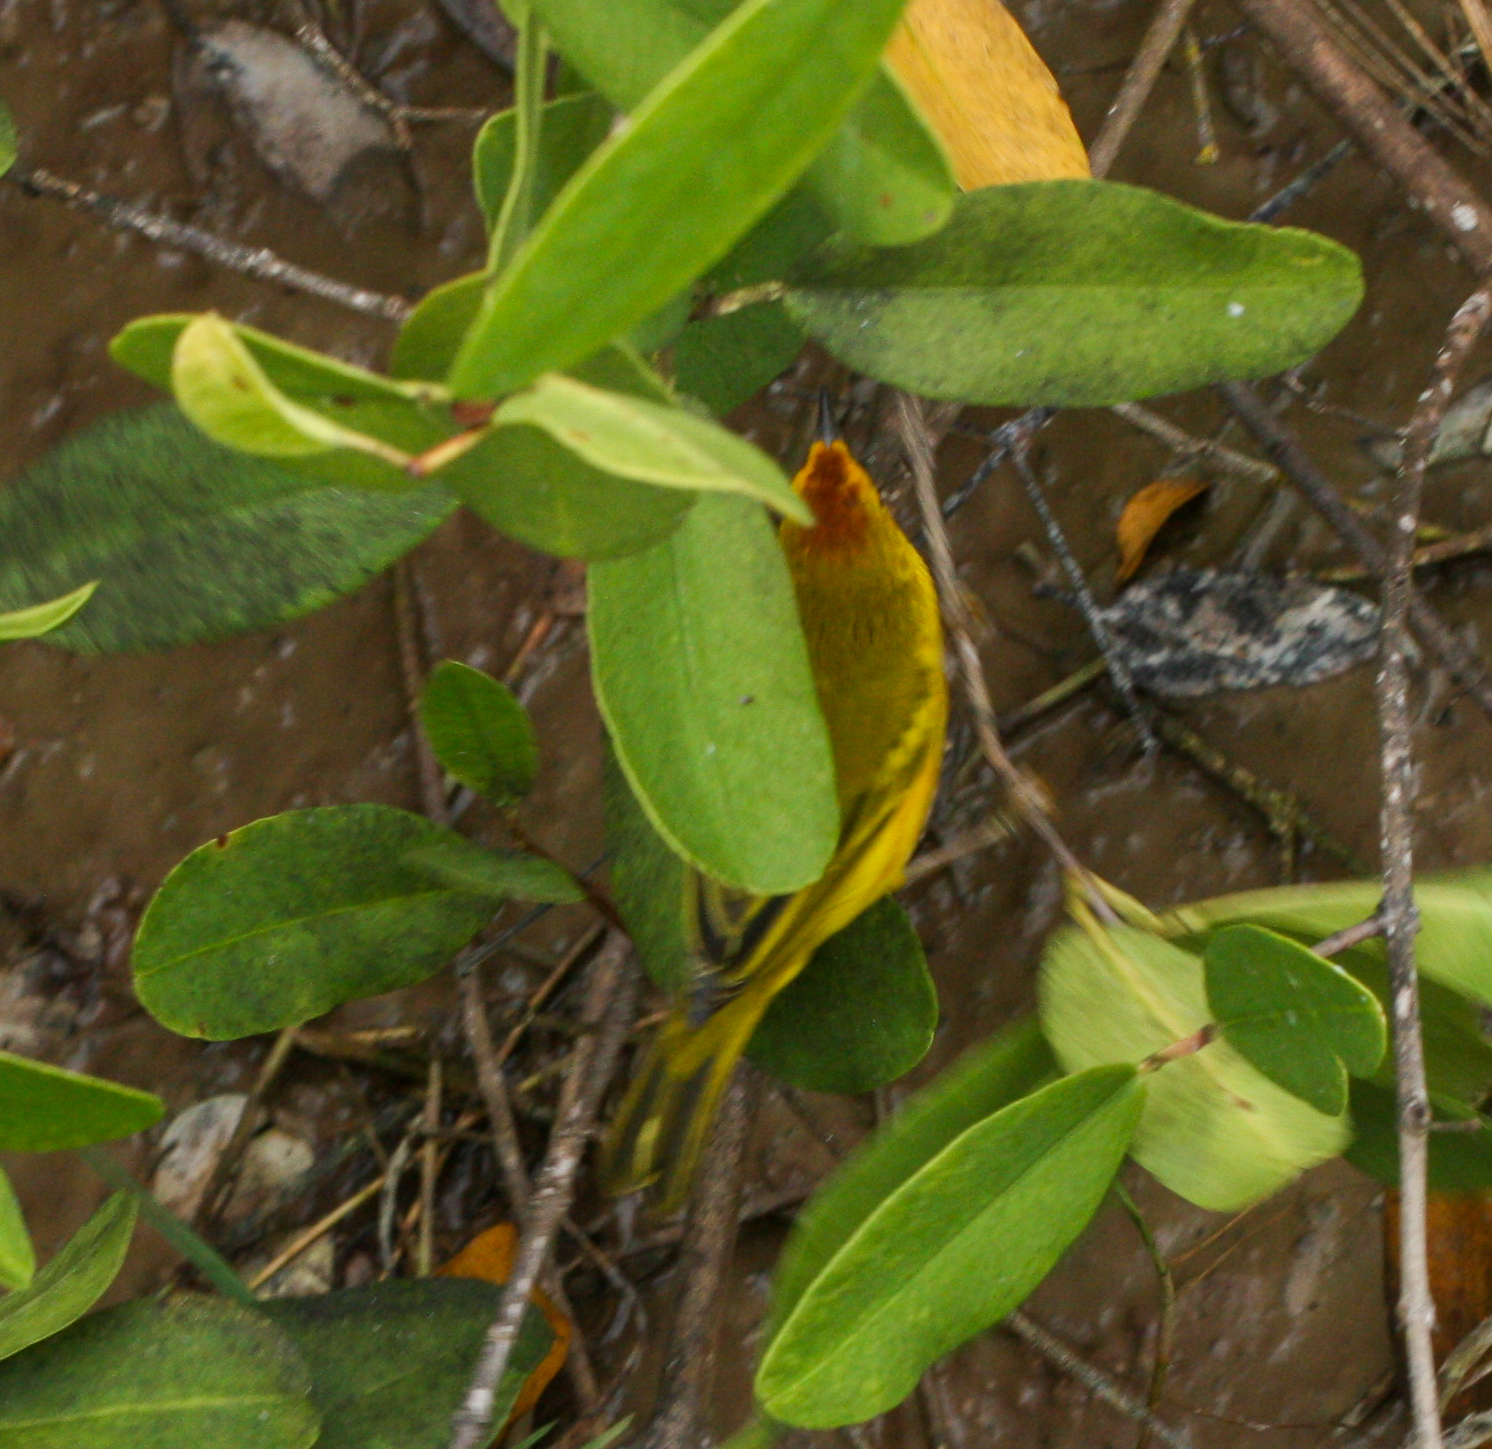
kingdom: Animalia
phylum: Chordata
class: Aves
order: Passeriformes
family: Parulidae
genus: Setophaga
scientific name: Setophaga petechia
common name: Yellow warbler
